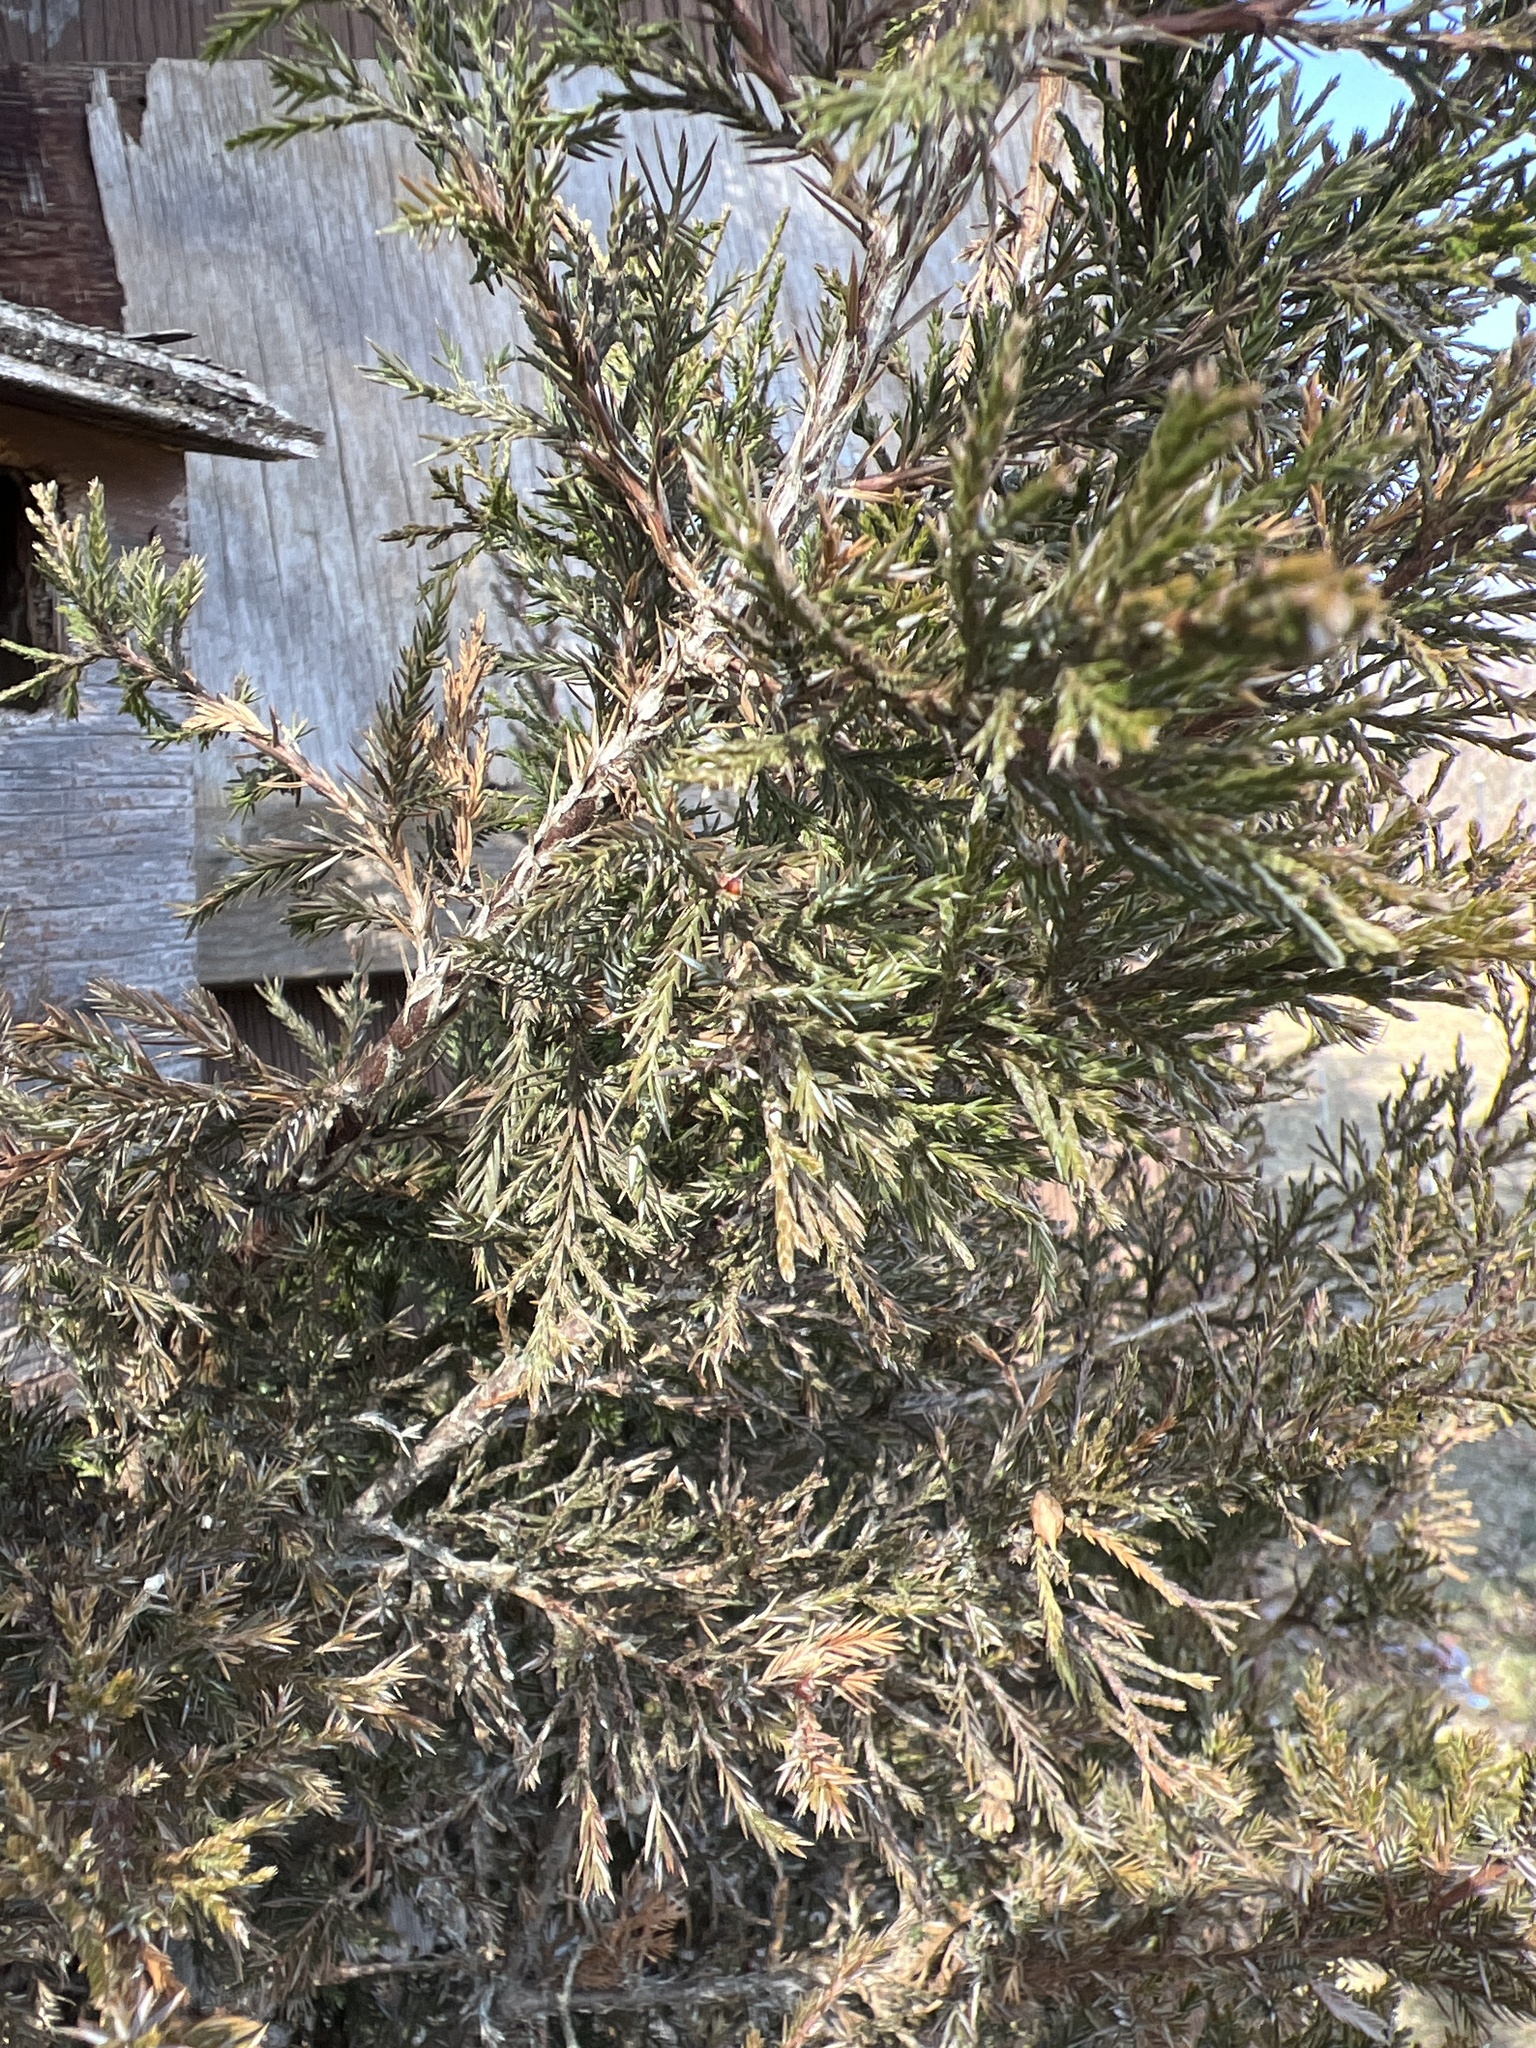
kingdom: Plantae
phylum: Tracheophyta
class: Pinopsida
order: Pinales
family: Cupressaceae
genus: Juniperus
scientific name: Juniperus virginiana
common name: Red juniper
